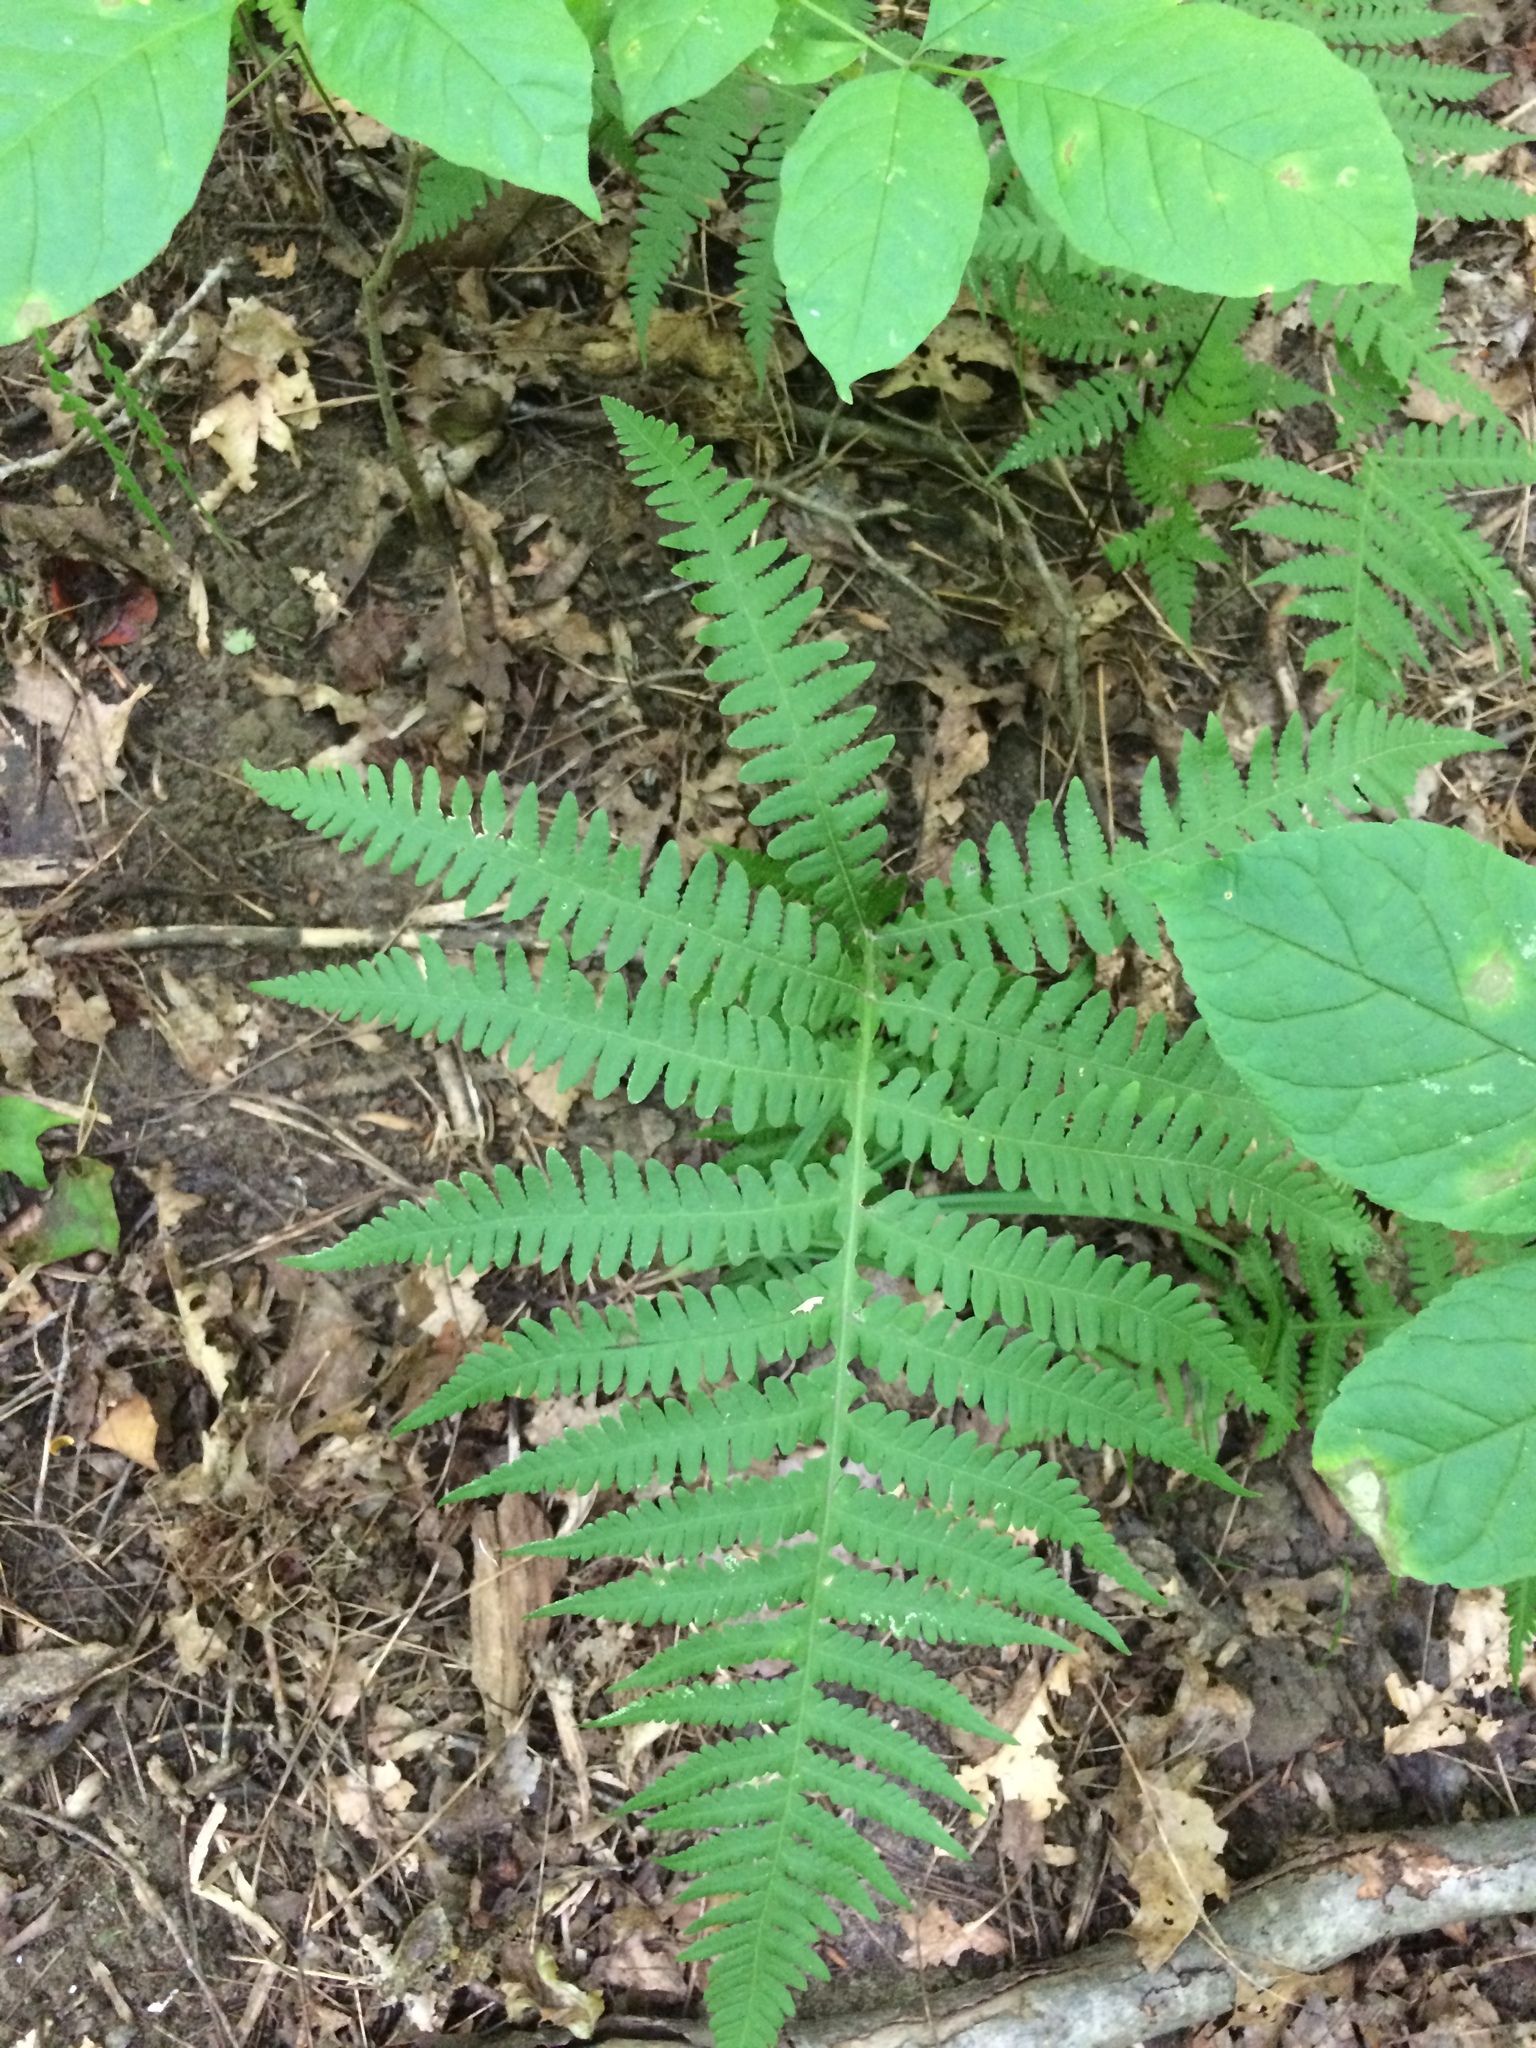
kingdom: Plantae
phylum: Tracheophyta
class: Polypodiopsida
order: Polypodiales
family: Thelypteridaceae
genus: Phegopteris
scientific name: Phegopteris hexagonoptera
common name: Broad beech fern
